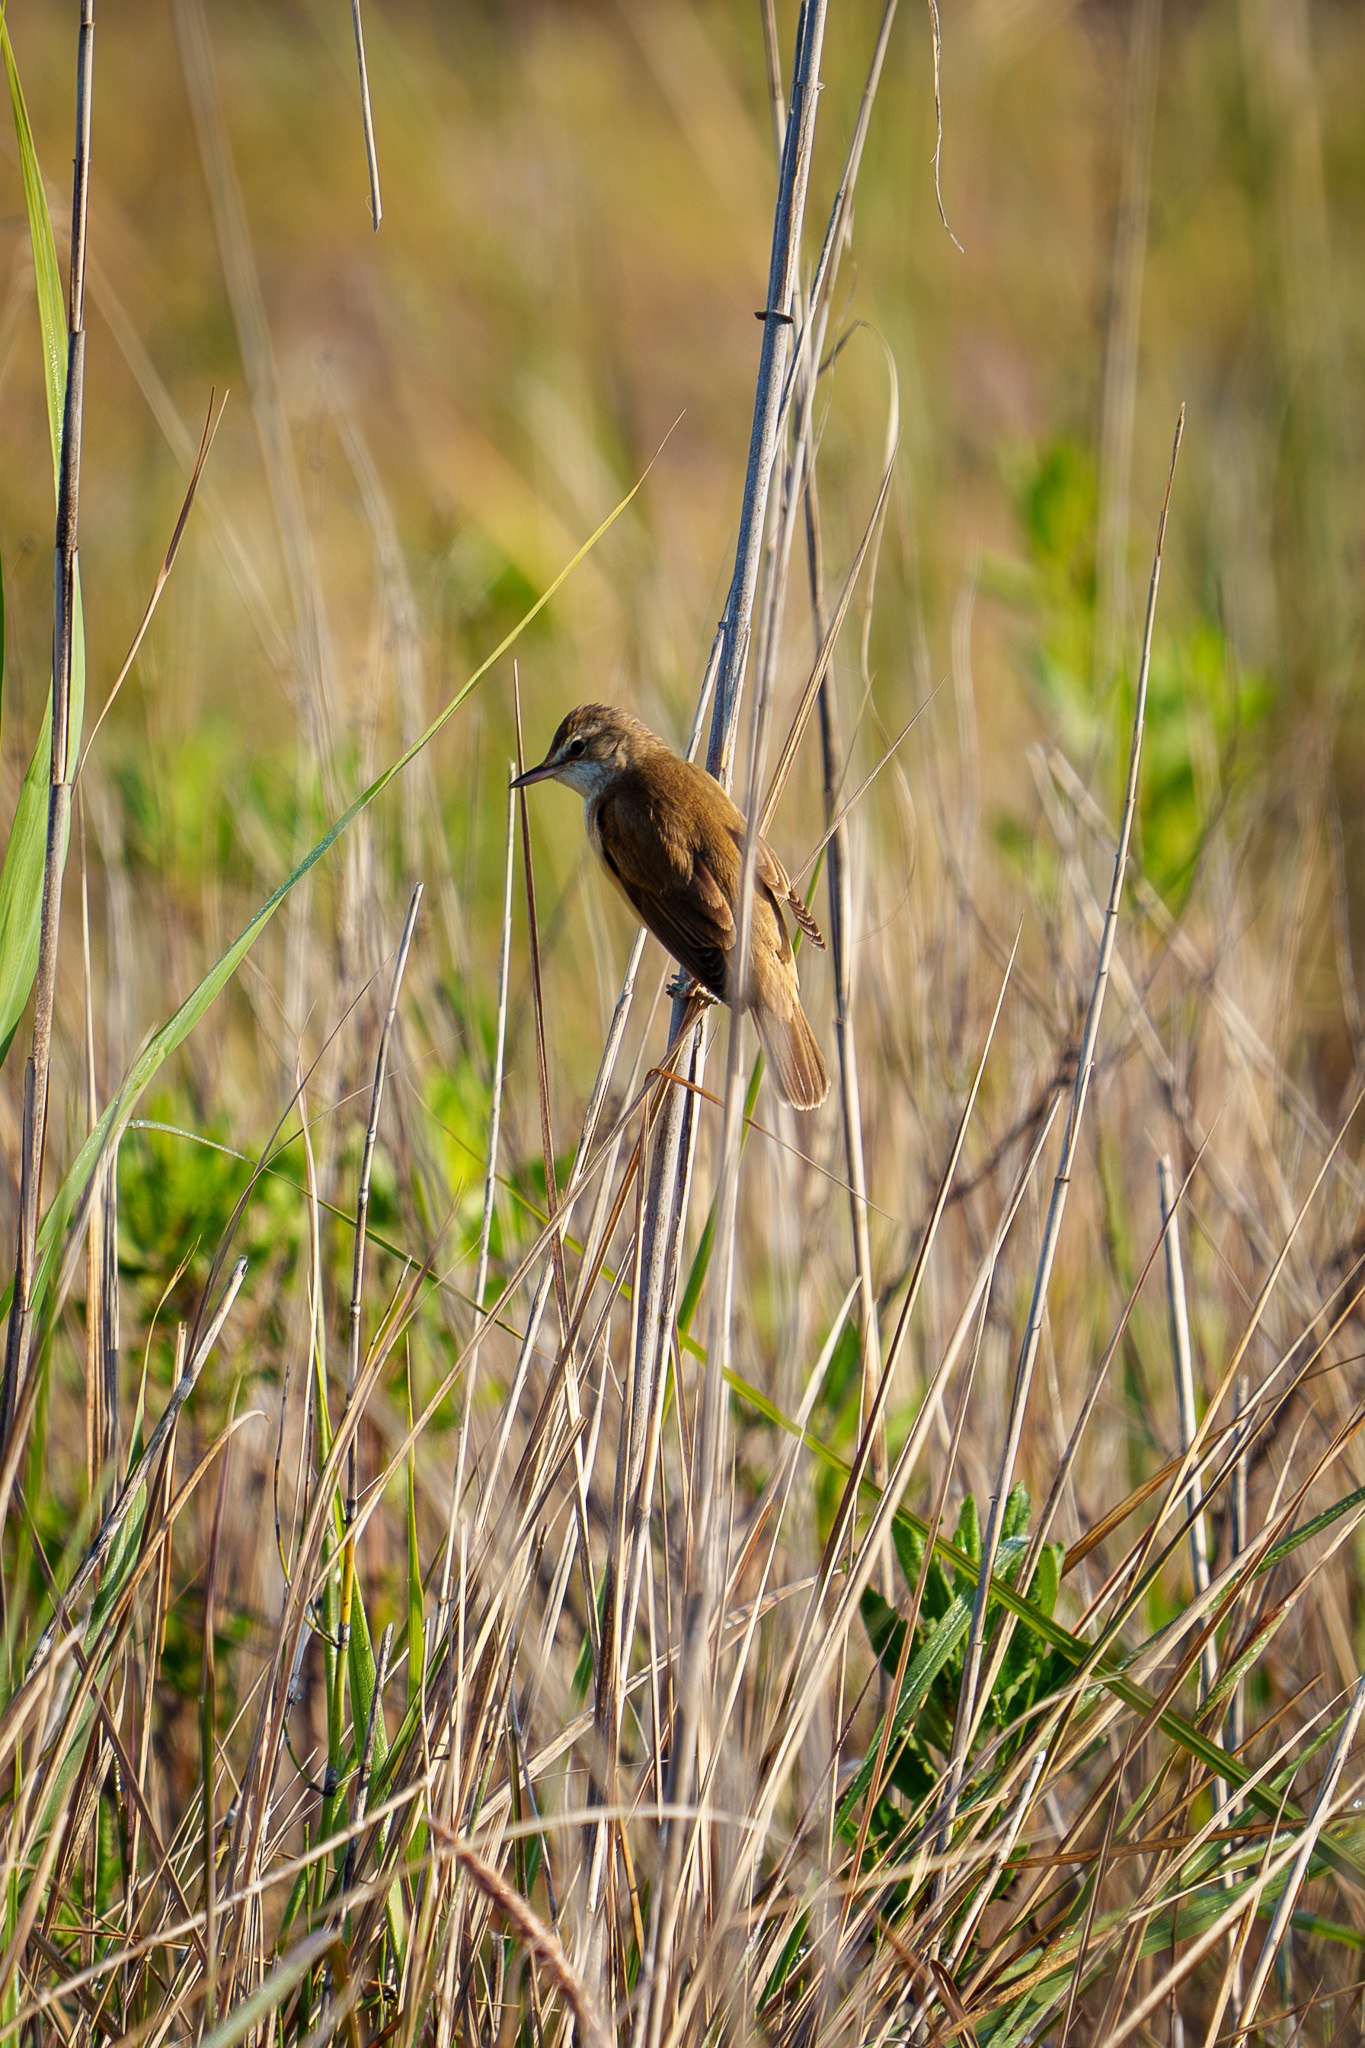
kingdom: Animalia
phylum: Chordata
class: Aves
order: Passeriformes
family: Acrocephalidae
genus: Acrocephalus
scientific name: Acrocephalus arundinaceus
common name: Great reed warbler
